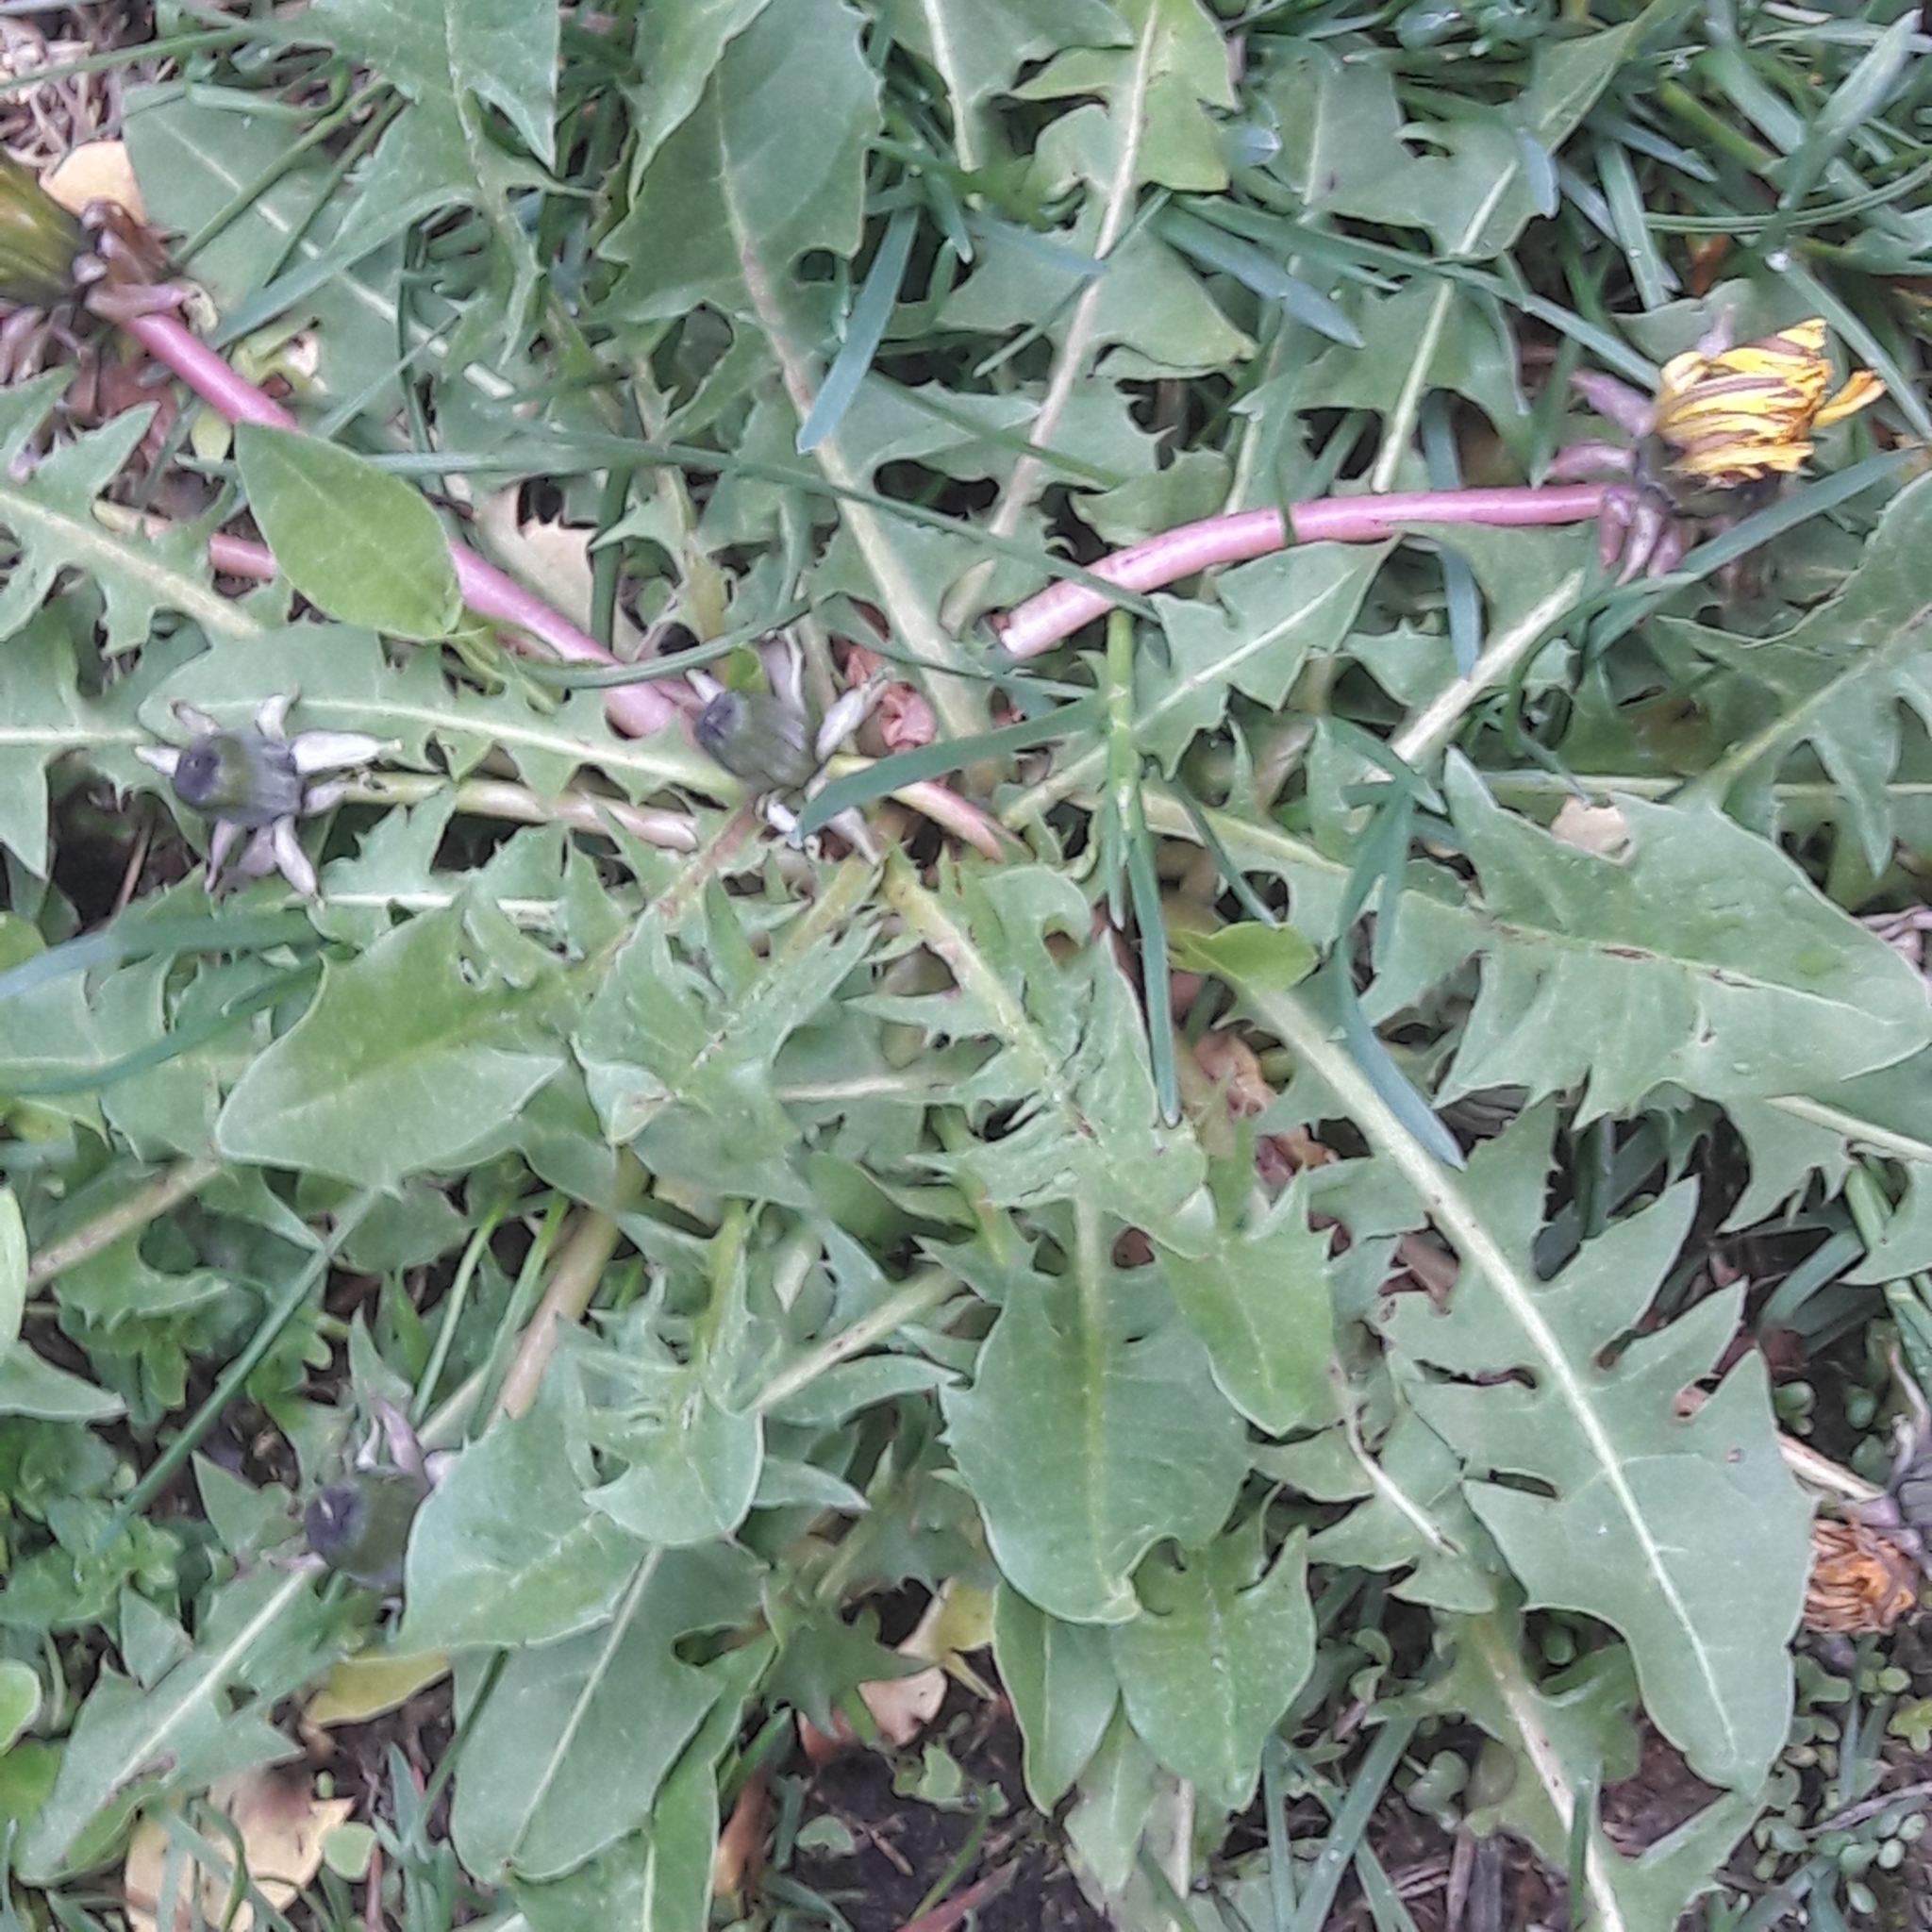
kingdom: Plantae
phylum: Tracheophyta
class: Magnoliopsida
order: Asterales
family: Asteraceae
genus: Taraxacum
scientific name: Taraxacum officinale
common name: Common dandelion
